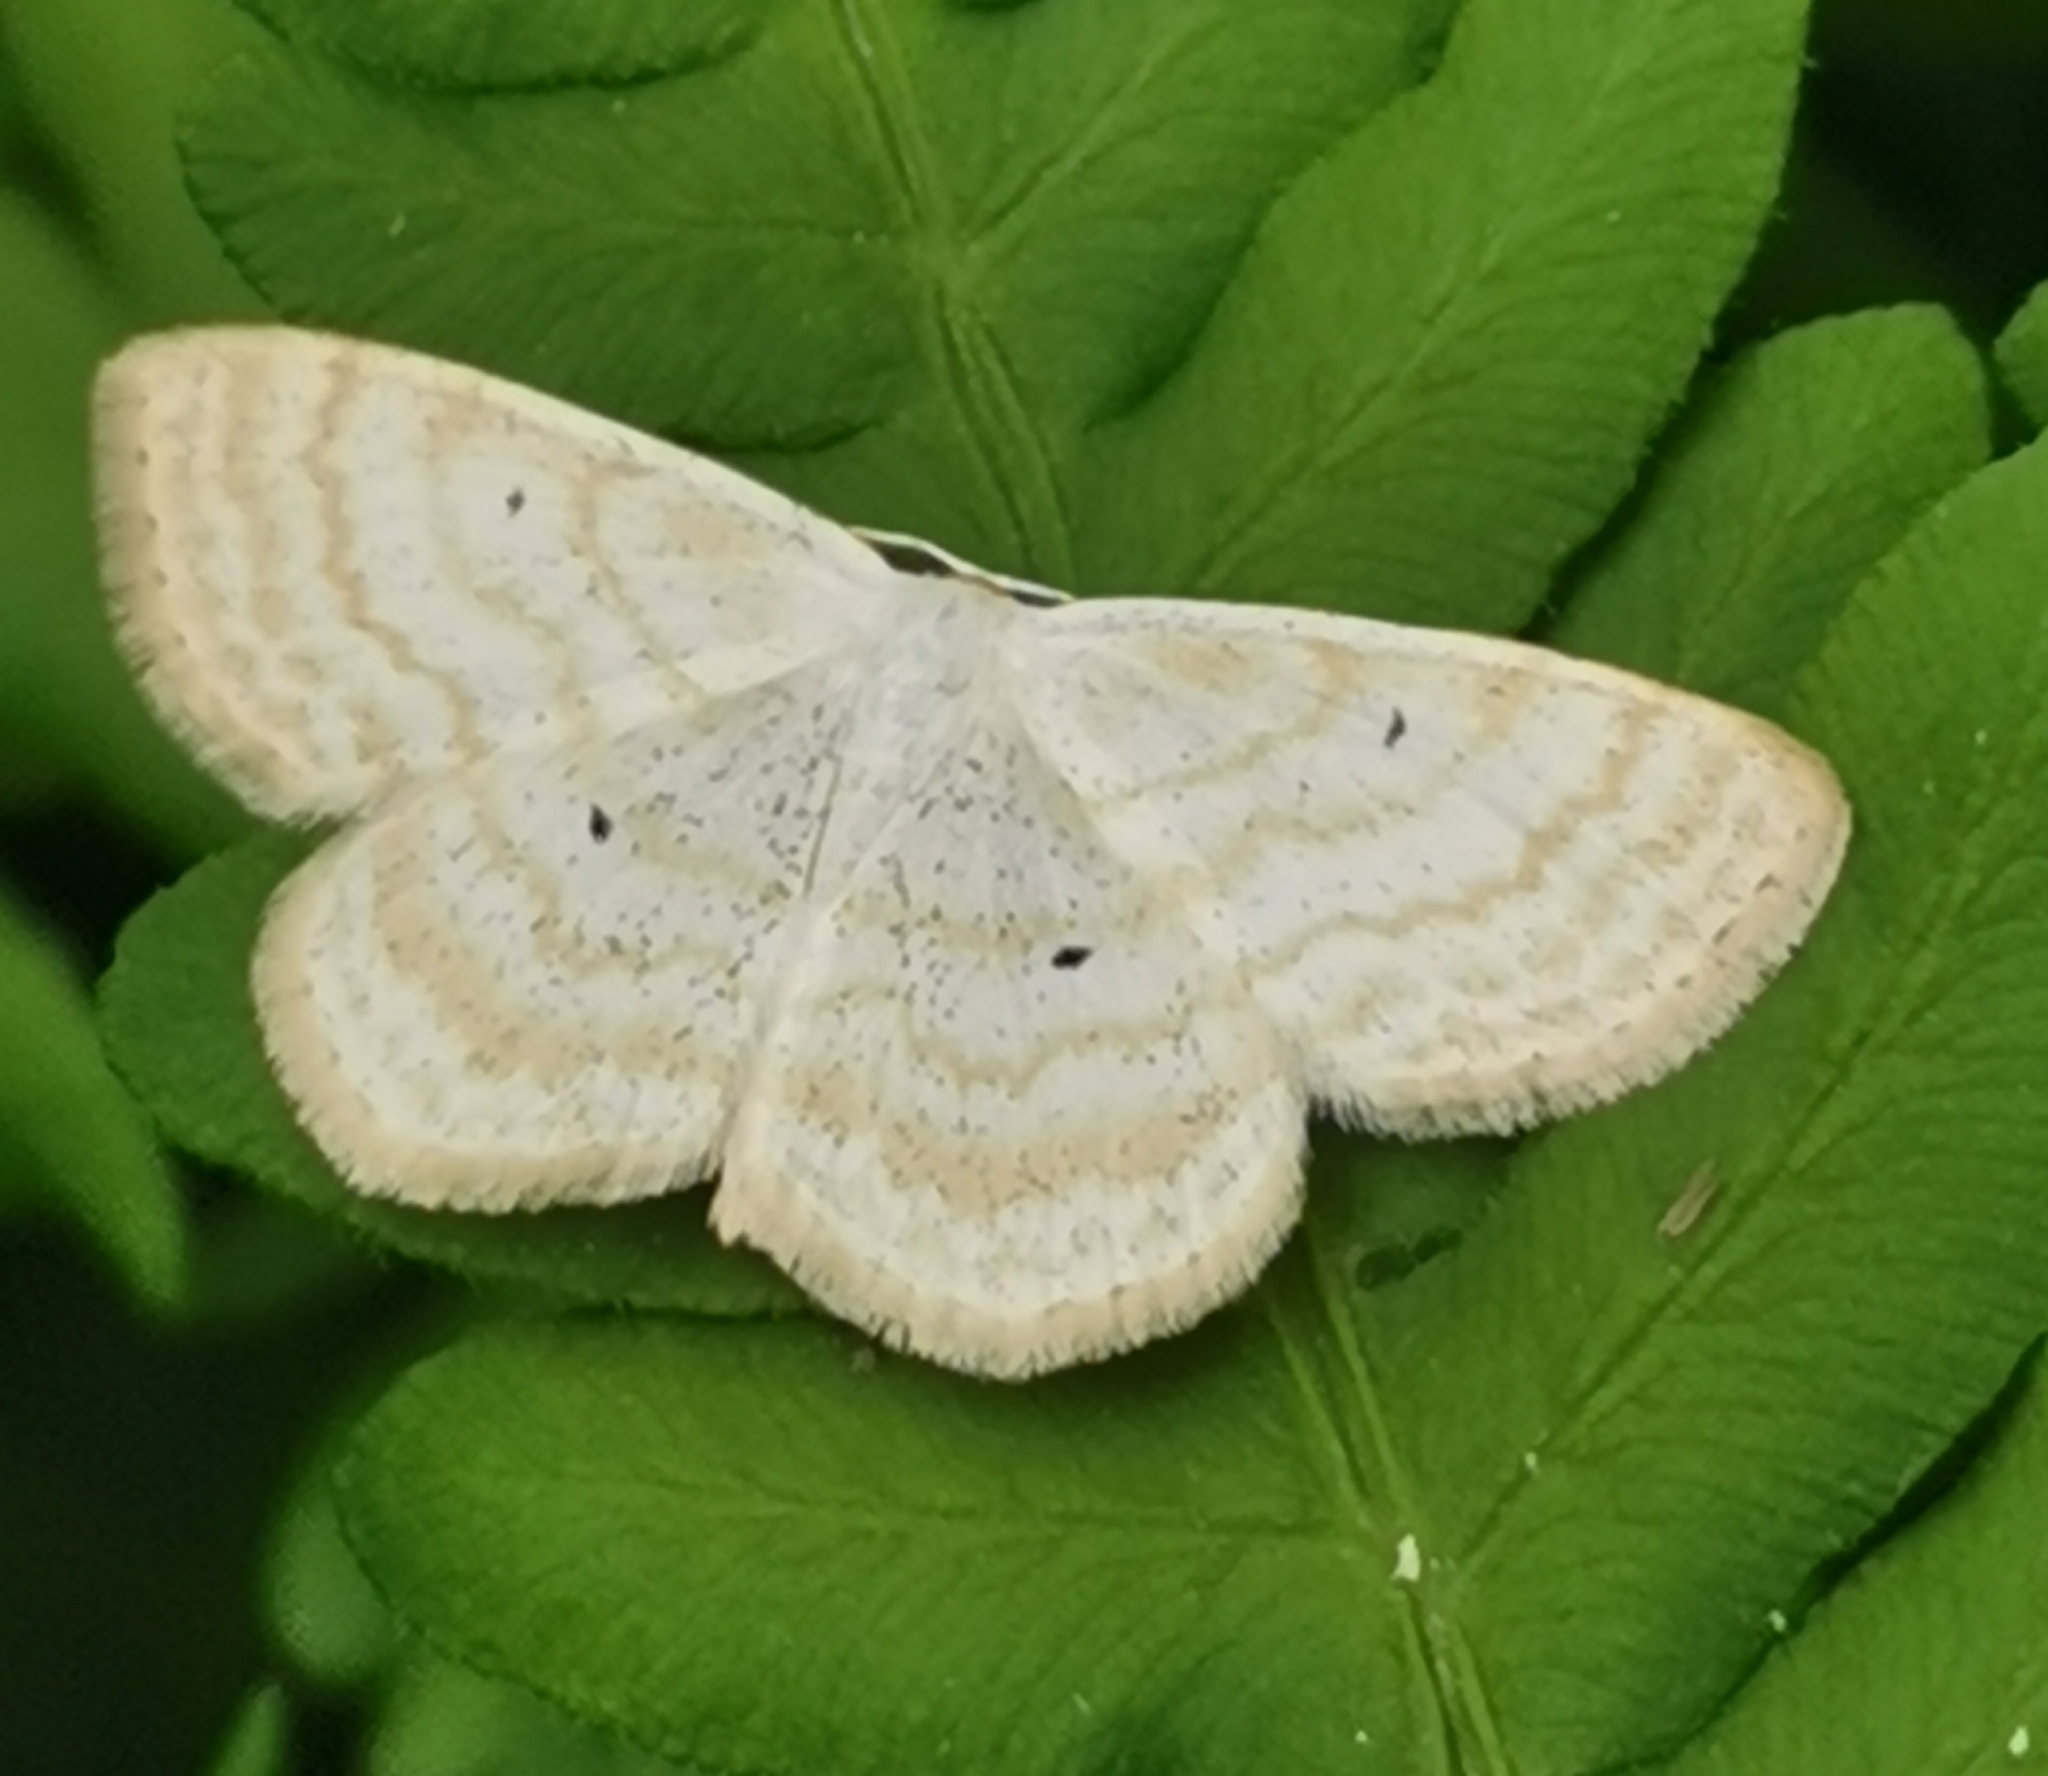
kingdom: Animalia
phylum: Arthropoda
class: Insecta
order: Lepidoptera
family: Geometridae
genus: Scopula
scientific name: Scopula immutata
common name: Lesser cream wave
